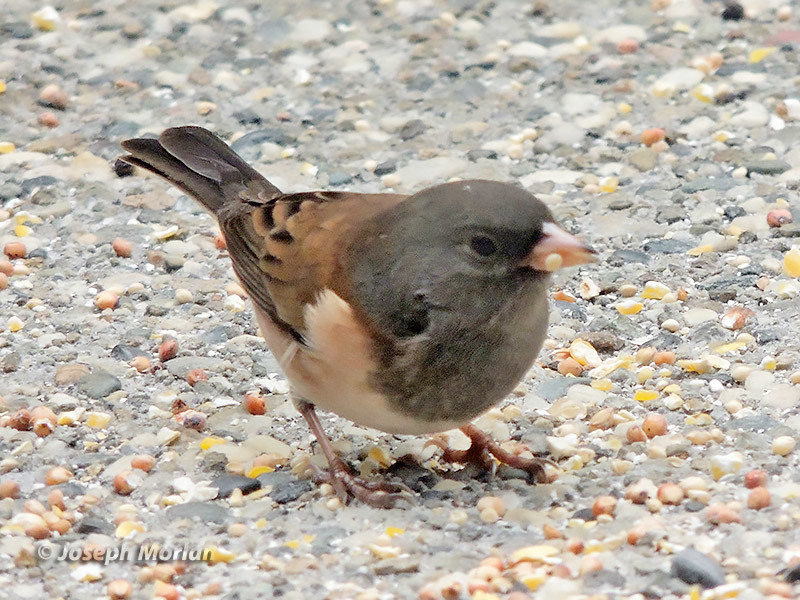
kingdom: Animalia
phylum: Chordata
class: Aves
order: Passeriformes
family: Passerellidae
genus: Junco
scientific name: Junco hyemalis
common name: Dark-eyed junco
